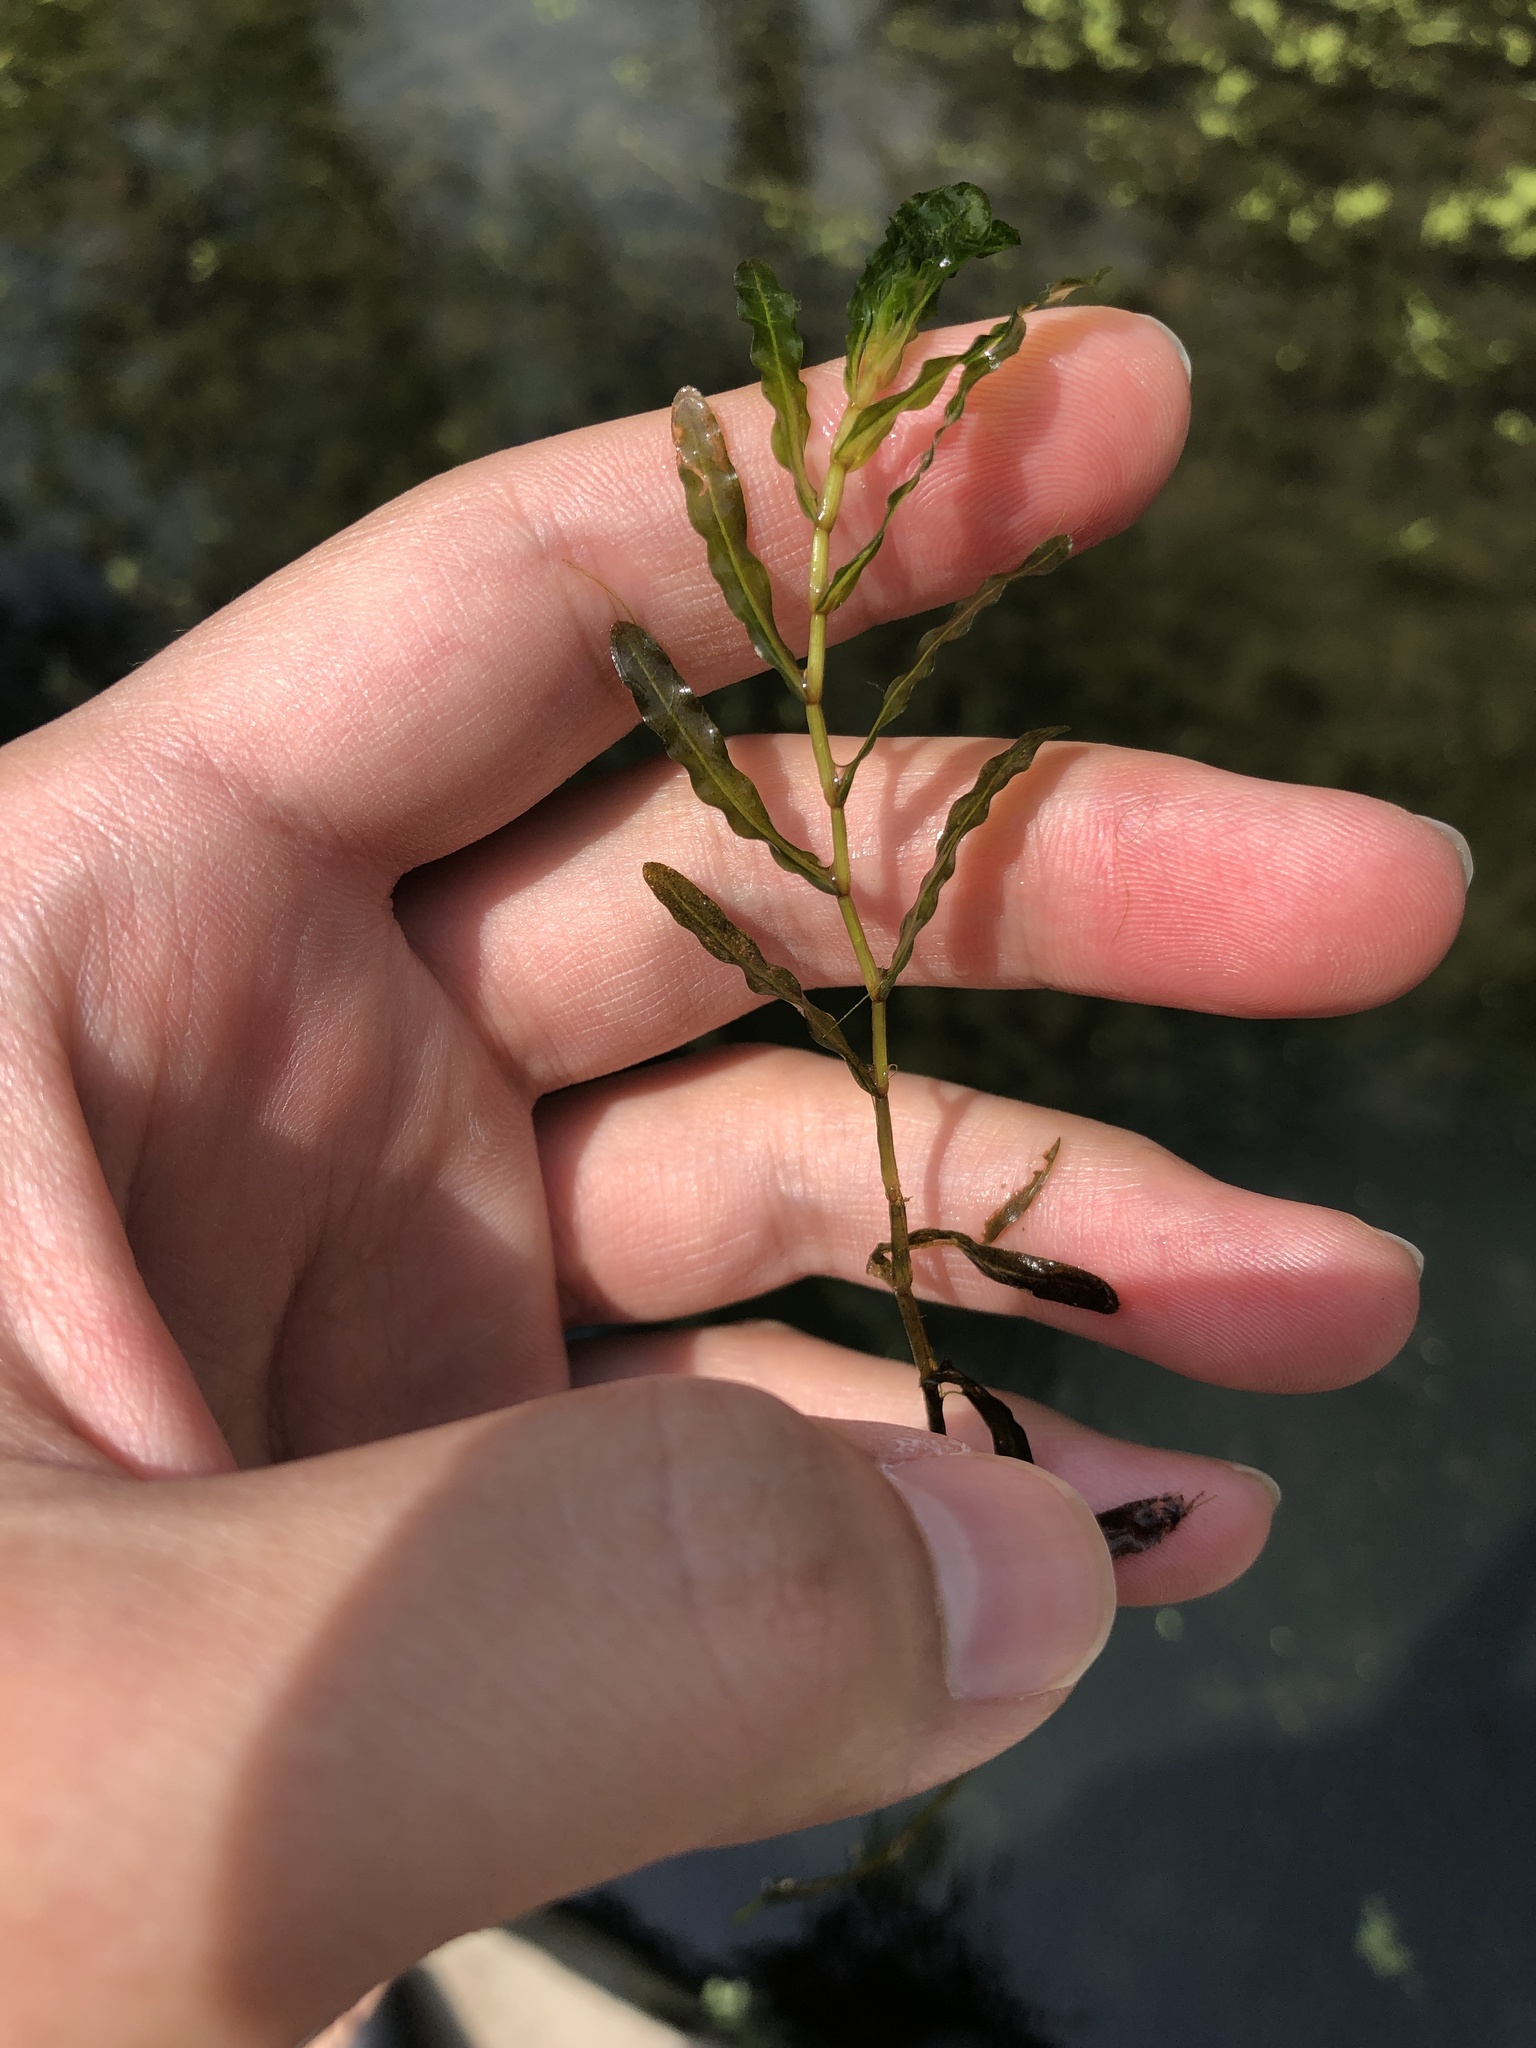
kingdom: Plantae
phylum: Tracheophyta
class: Liliopsida
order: Alismatales
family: Potamogetonaceae
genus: Potamogeton
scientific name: Potamogeton crispus
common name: Curled pondweed
